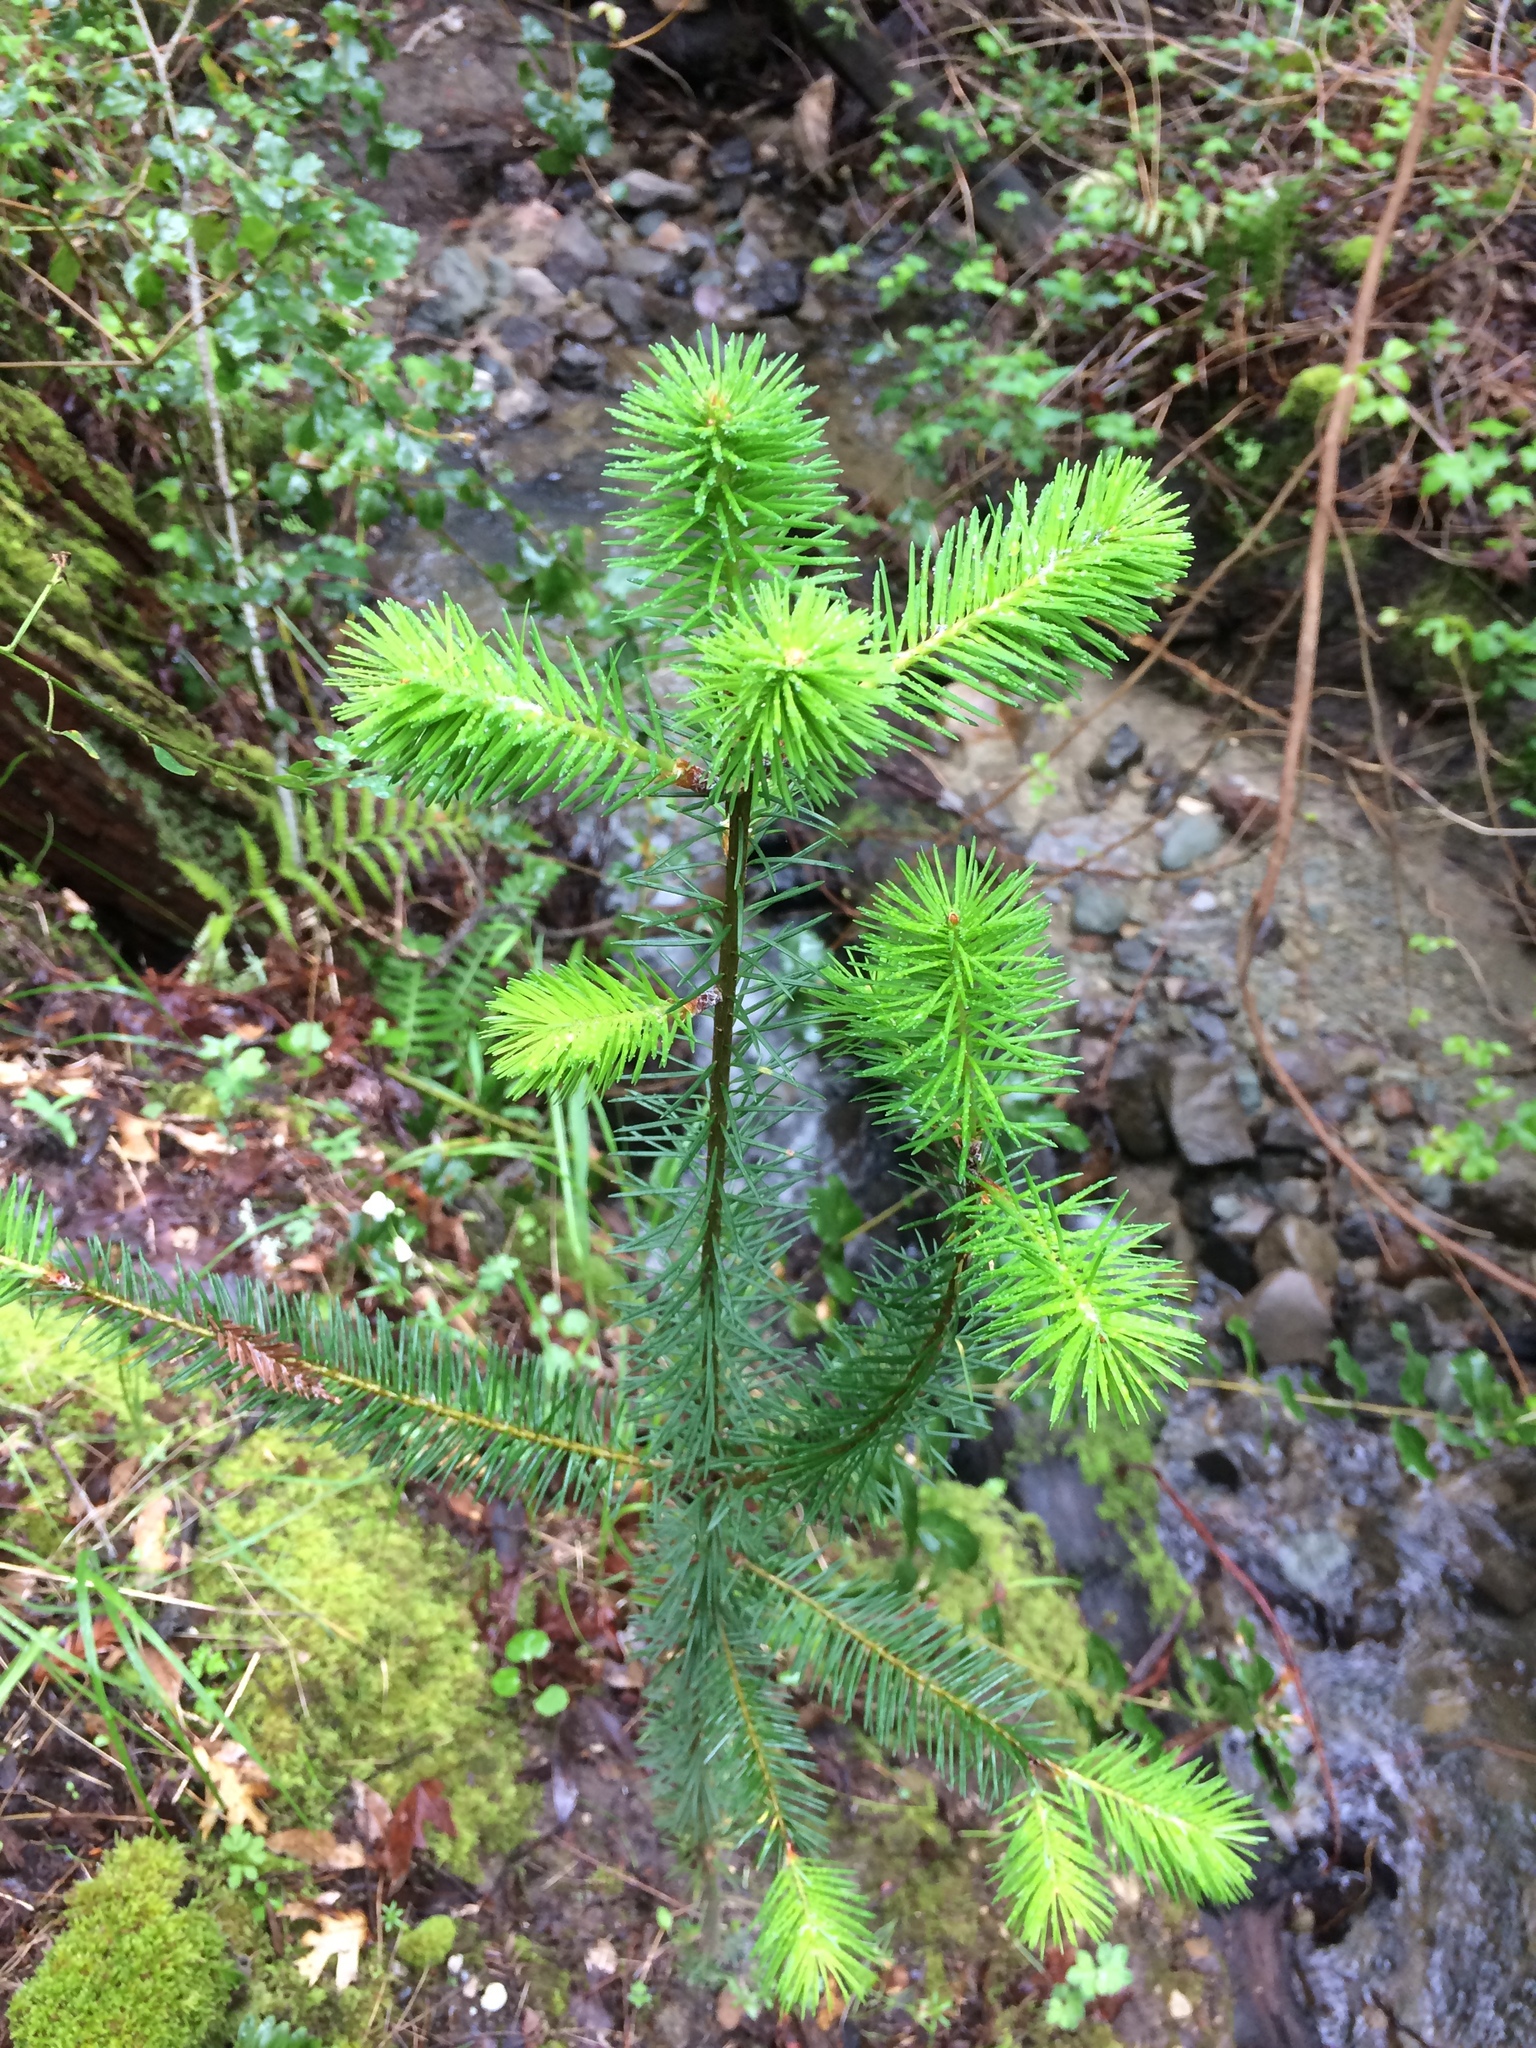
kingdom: Plantae
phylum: Tracheophyta
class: Pinopsida
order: Pinales
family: Pinaceae
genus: Pseudotsuga
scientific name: Pseudotsuga menziesii
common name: Douglas fir
